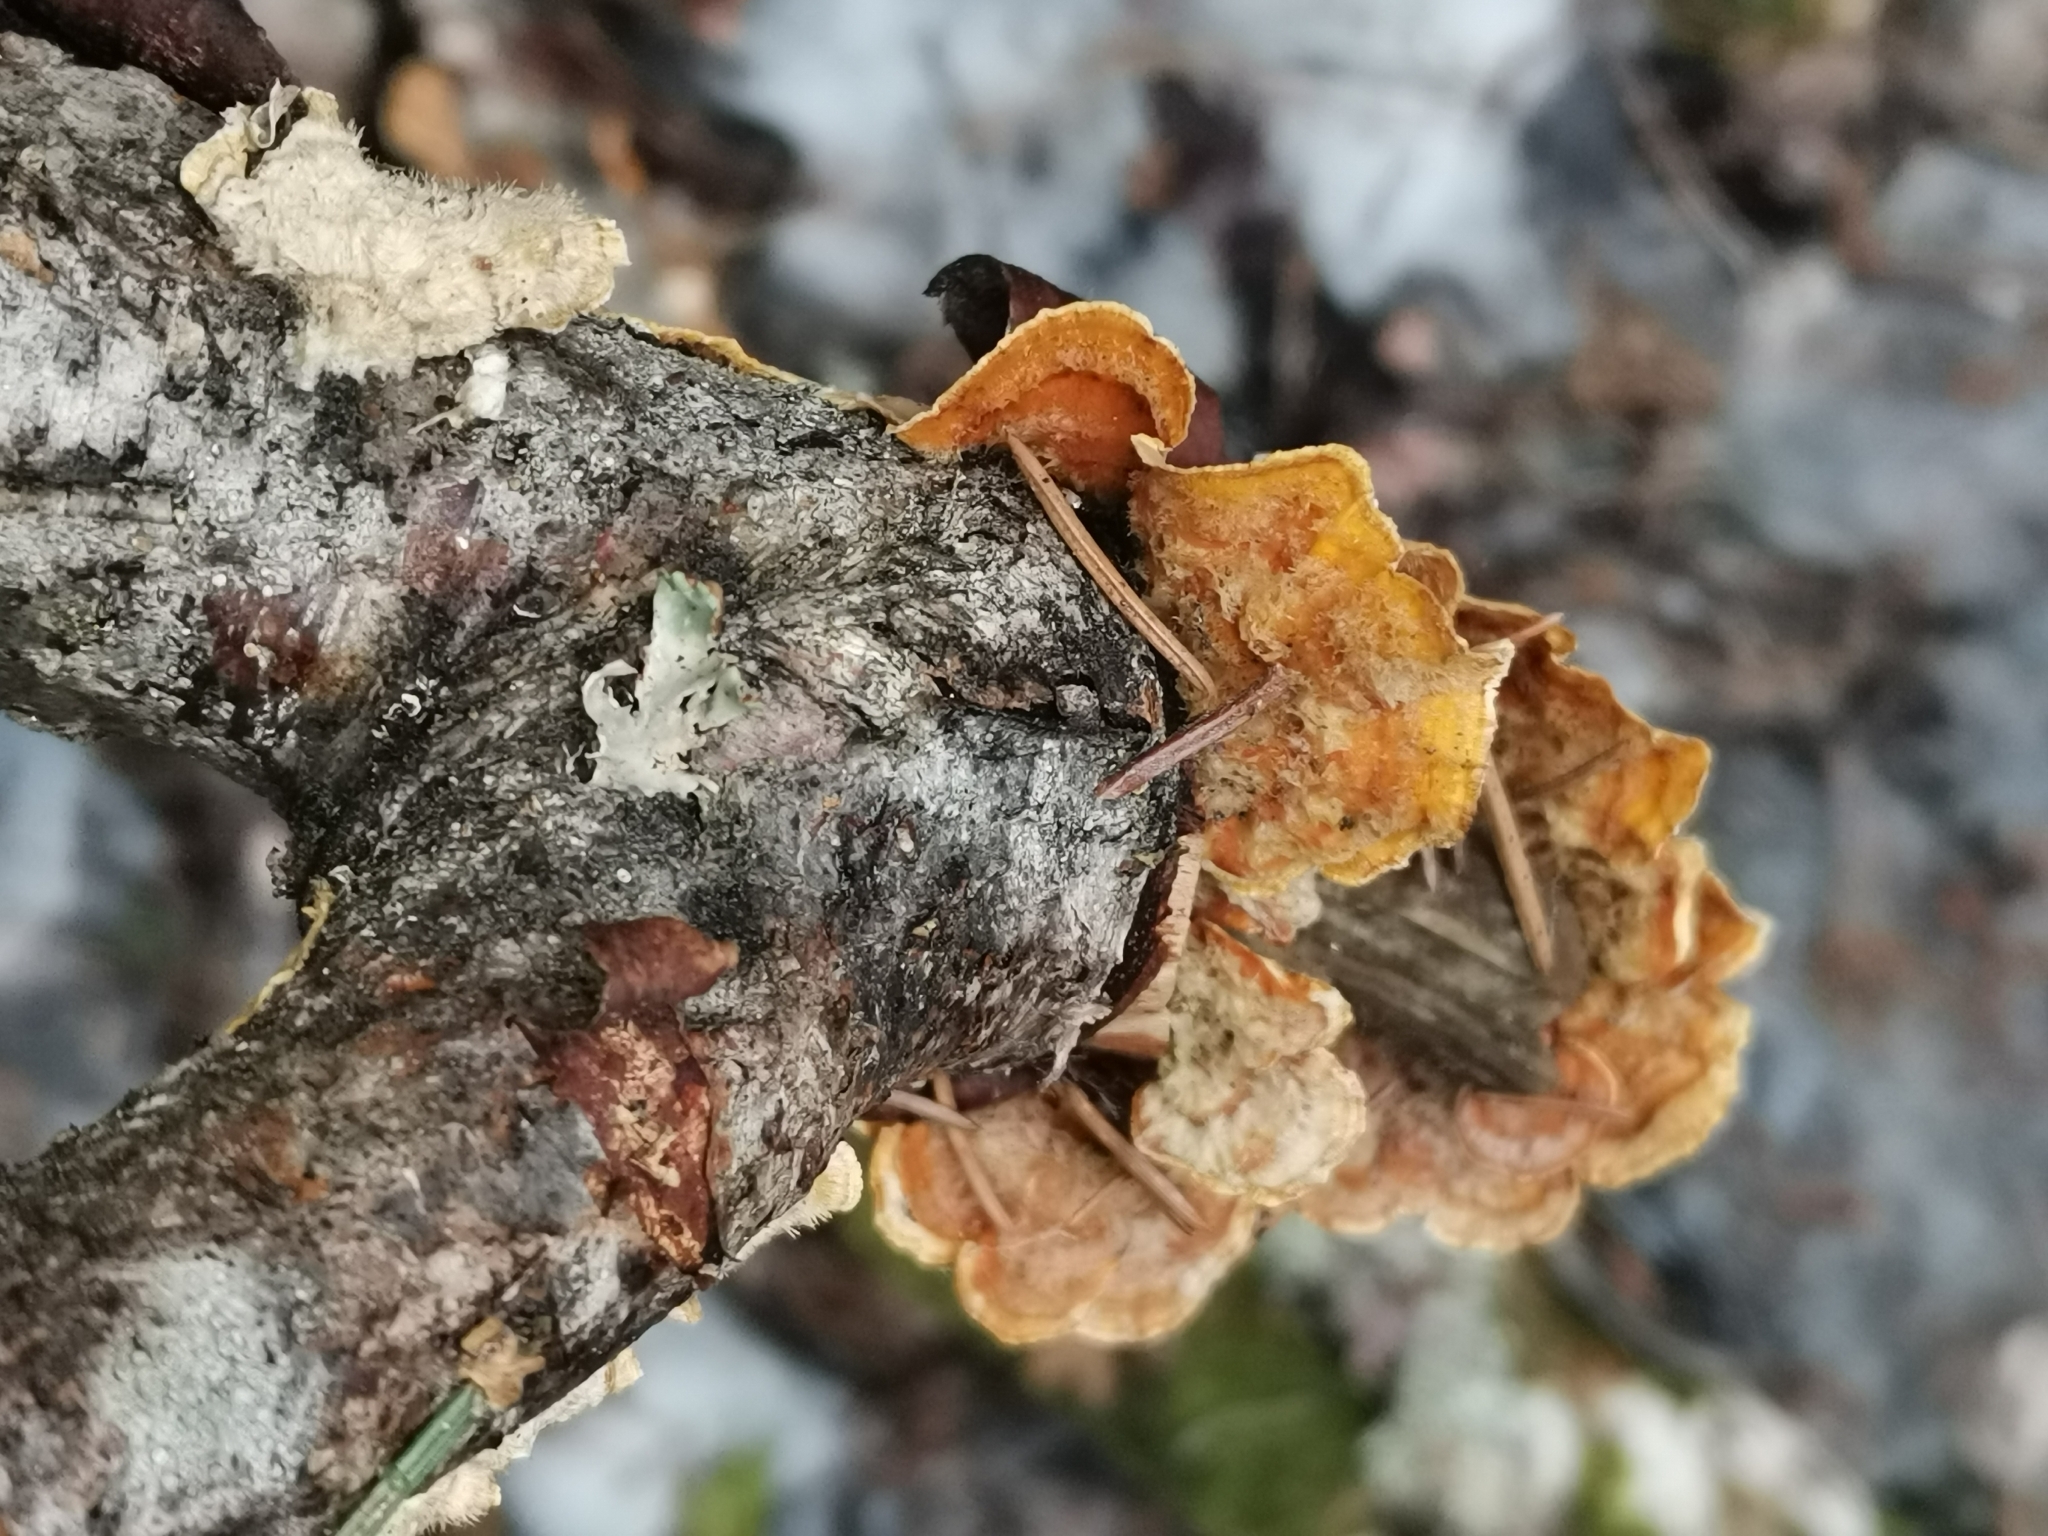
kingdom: Fungi
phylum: Basidiomycota
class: Agaricomycetes
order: Russulales
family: Stereaceae
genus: Stereum
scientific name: Stereum hirsutum
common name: Hairy curtain crust
